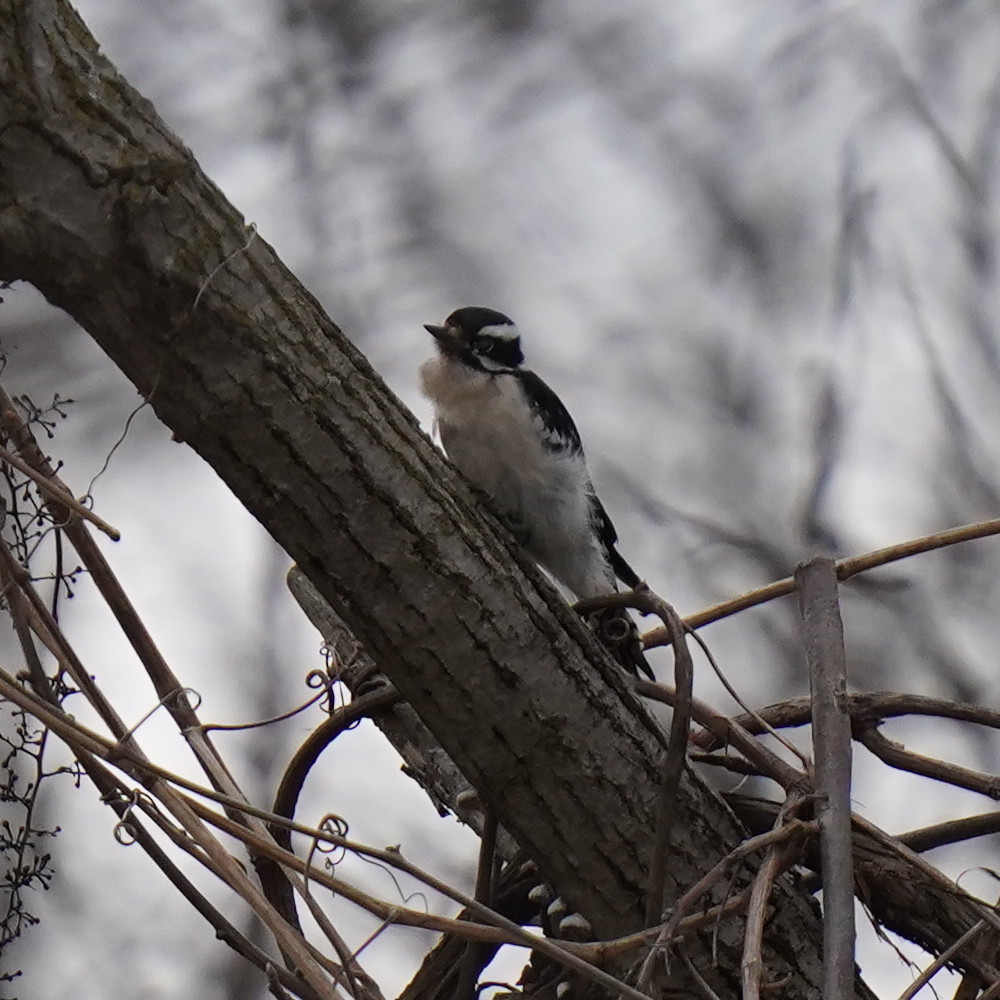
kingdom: Animalia
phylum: Chordata
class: Aves
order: Piciformes
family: Picidae
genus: Dryobates
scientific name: Dryobates pubescens
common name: Downy woodpecker
